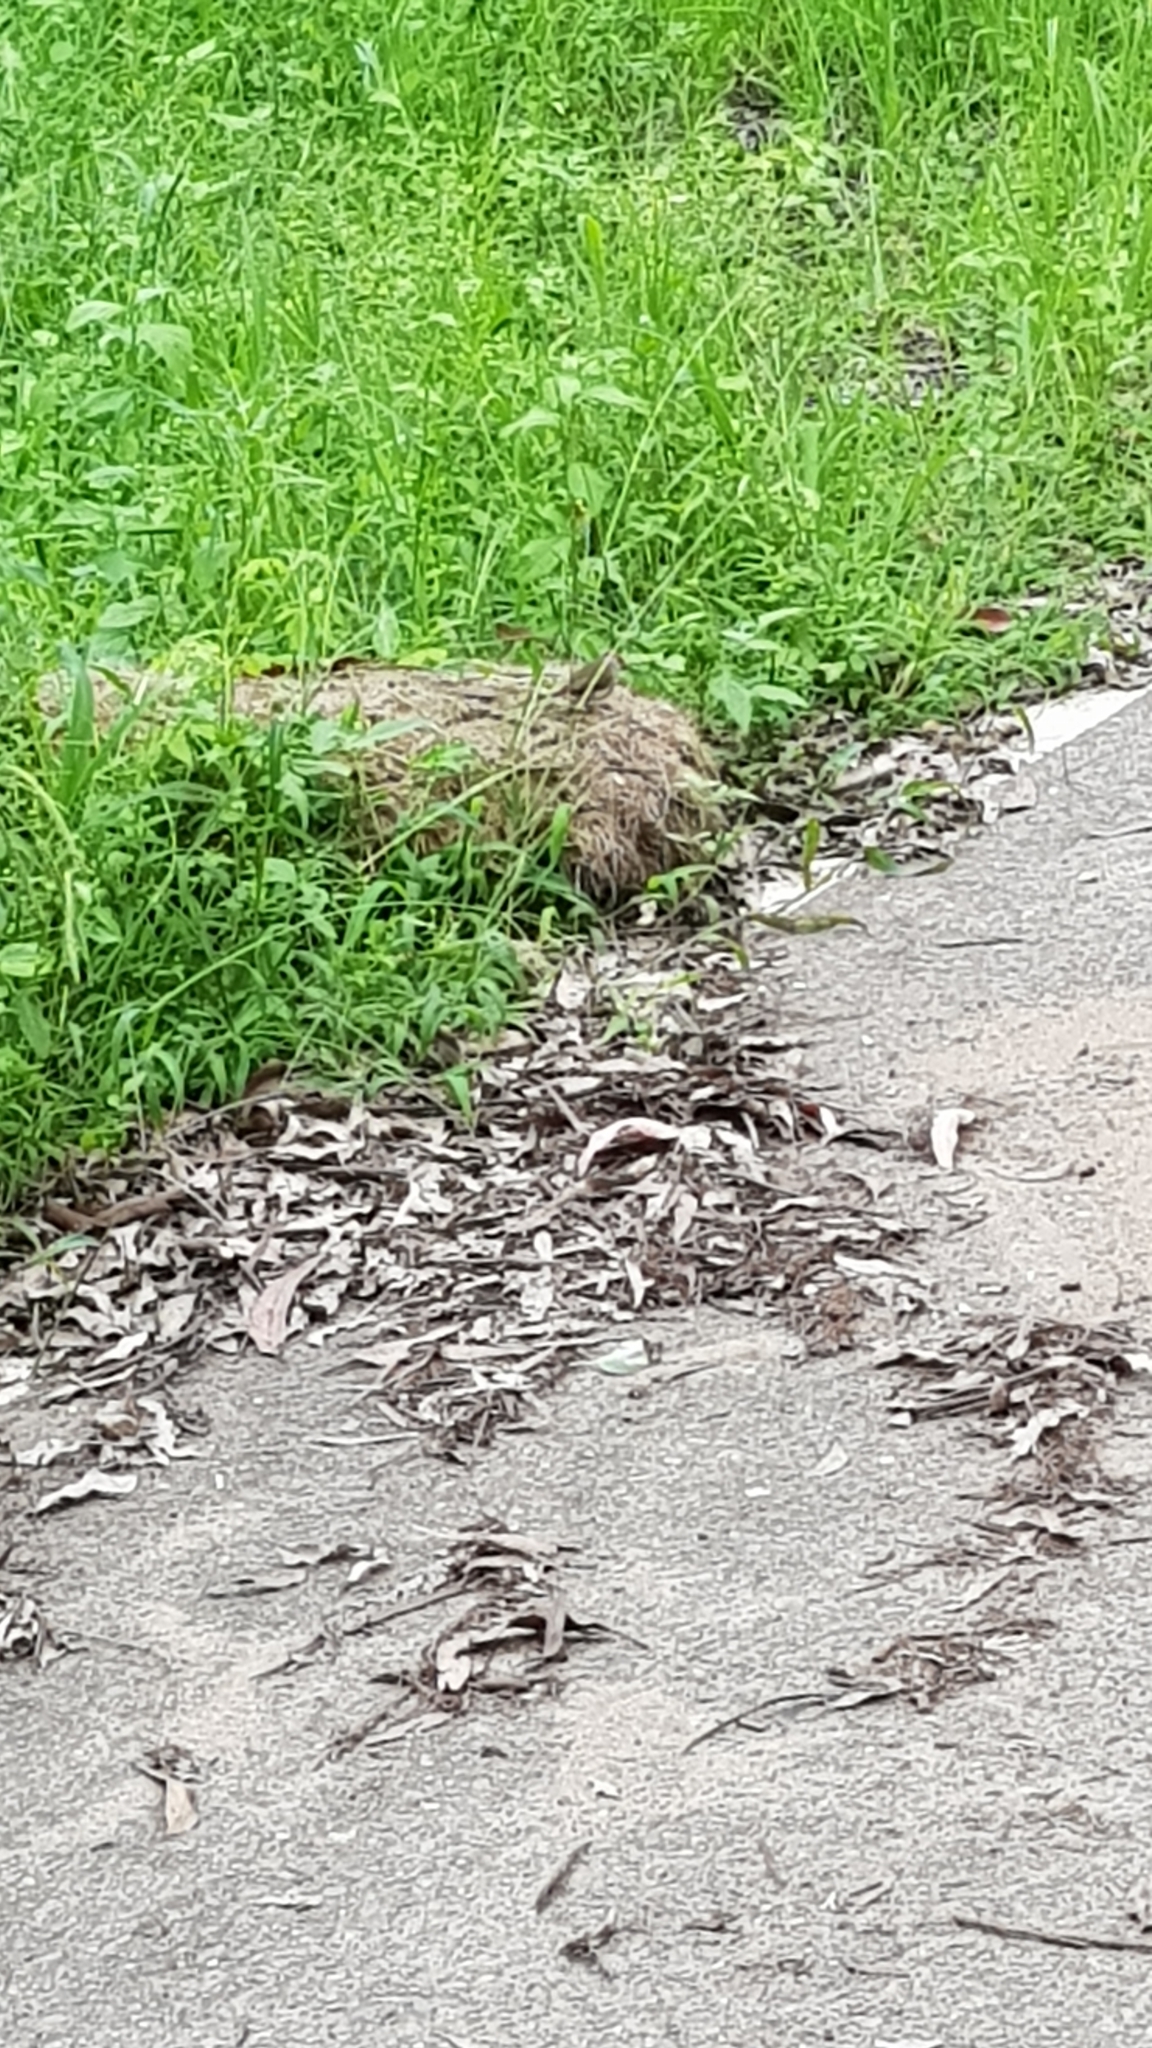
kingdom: Animalia
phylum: Chordata
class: Aves
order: Passeriformes
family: Estrildidae
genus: Neochmia
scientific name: Neochmia temporalis
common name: Red-browed finch
